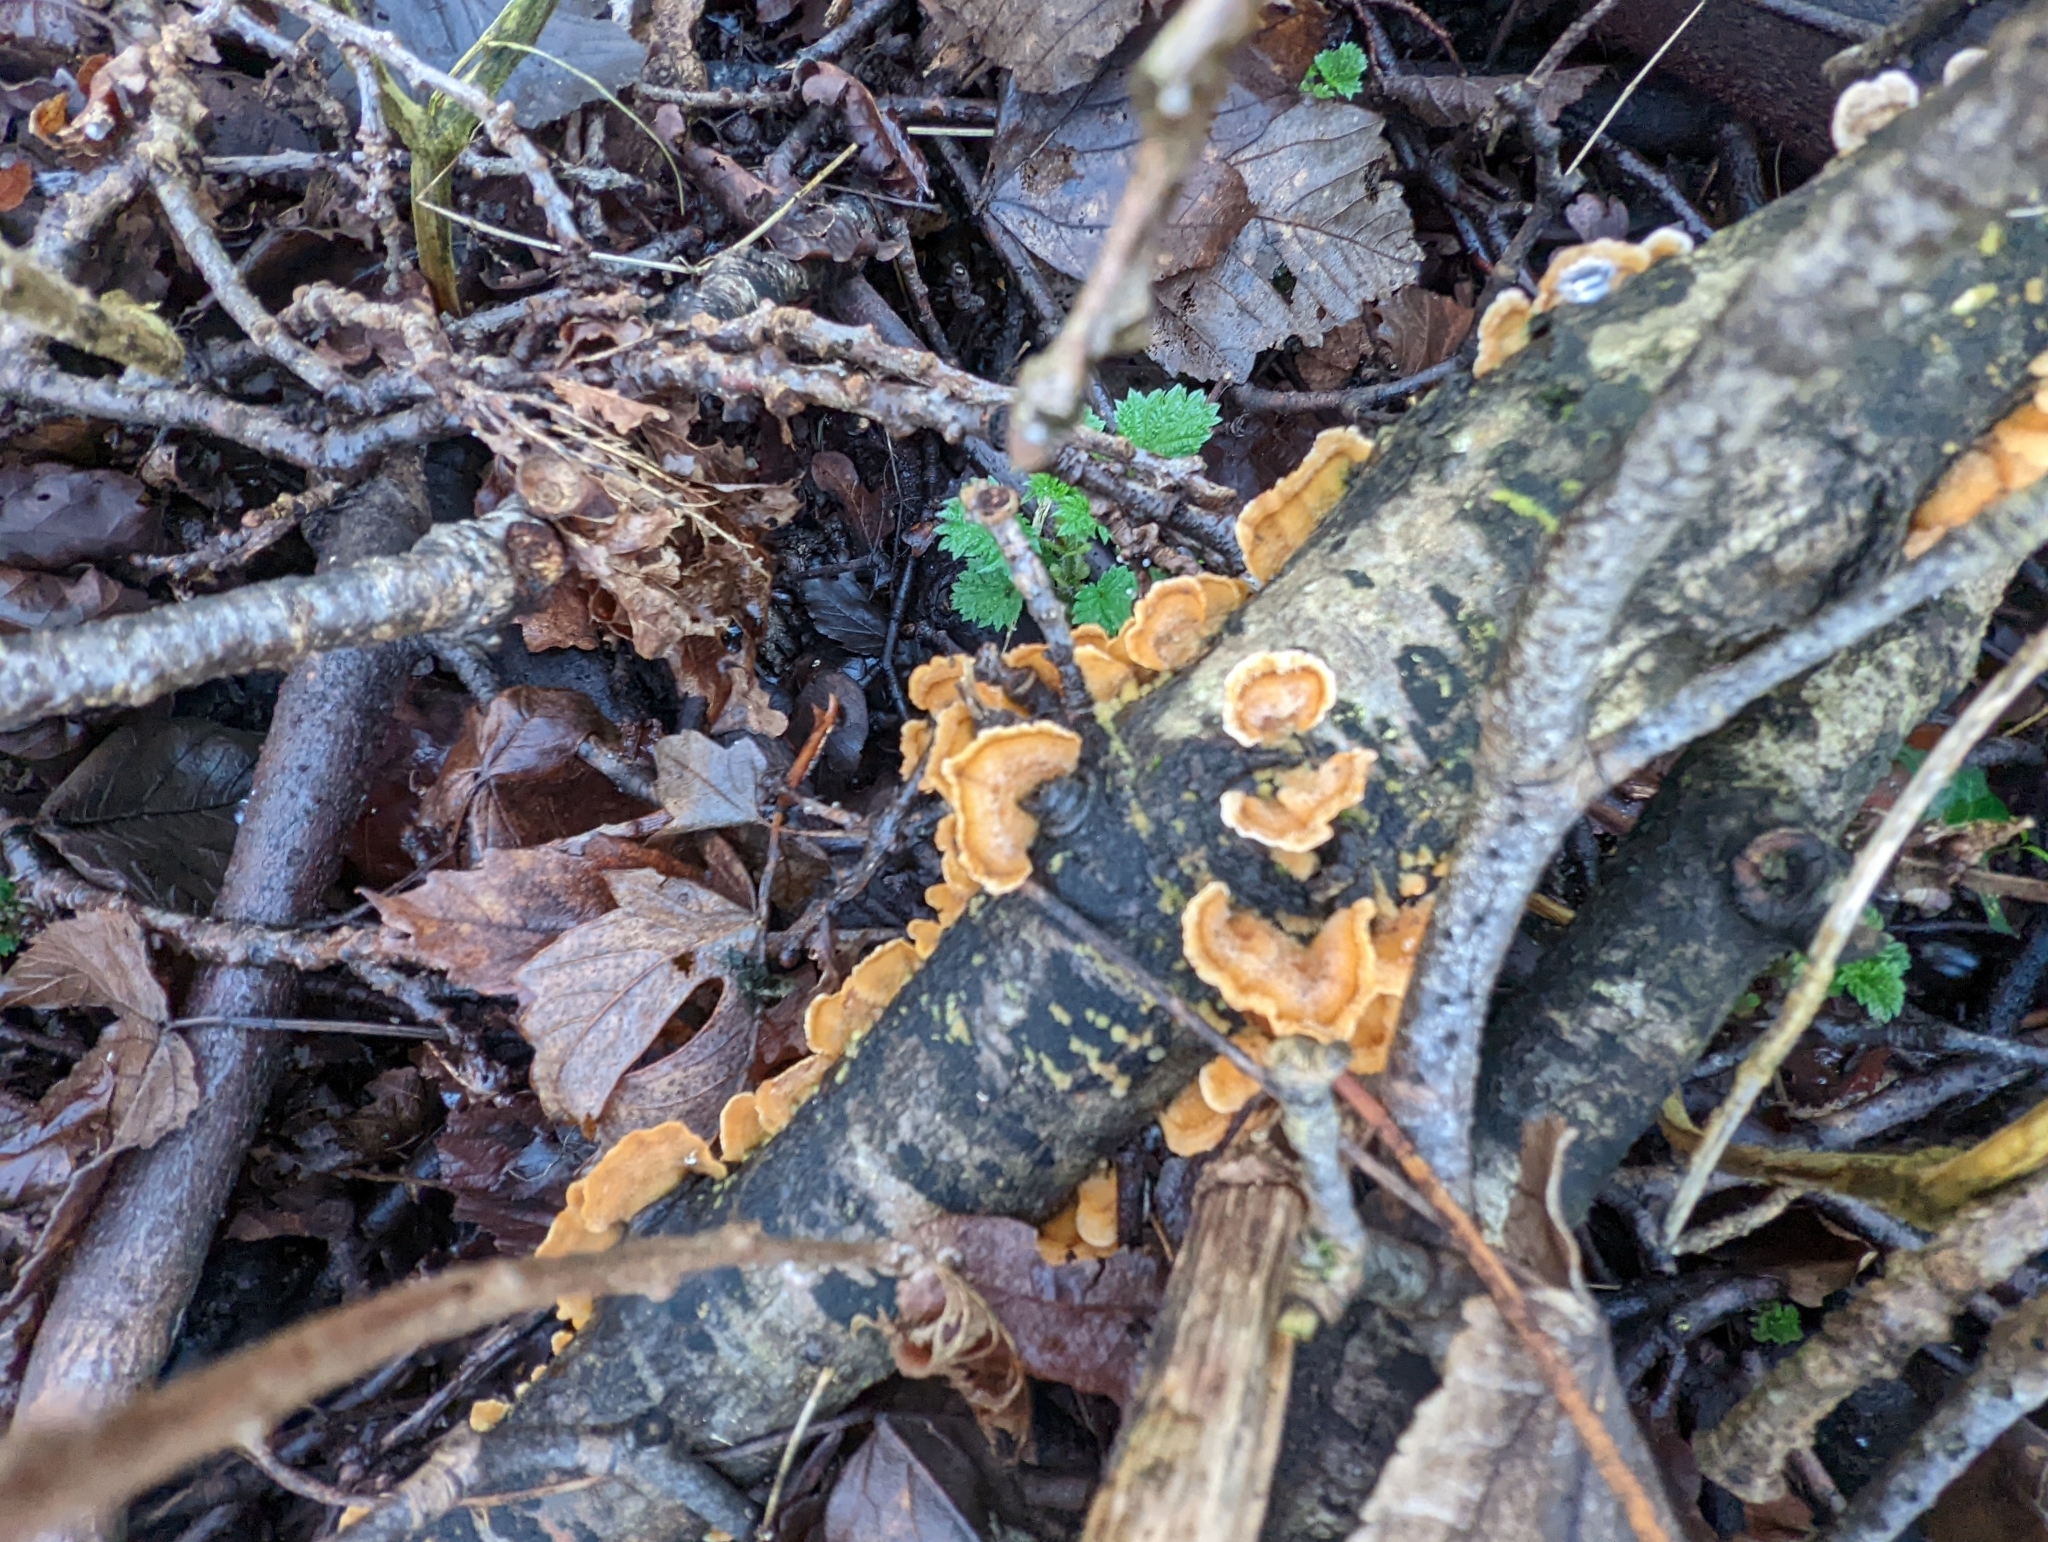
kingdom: Fungi
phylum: Basidiomycota
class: Agaricomycetes
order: Russulales
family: Stereaceae
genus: Stereum
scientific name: Stereum hirsutum
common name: Hairy curtain crust
